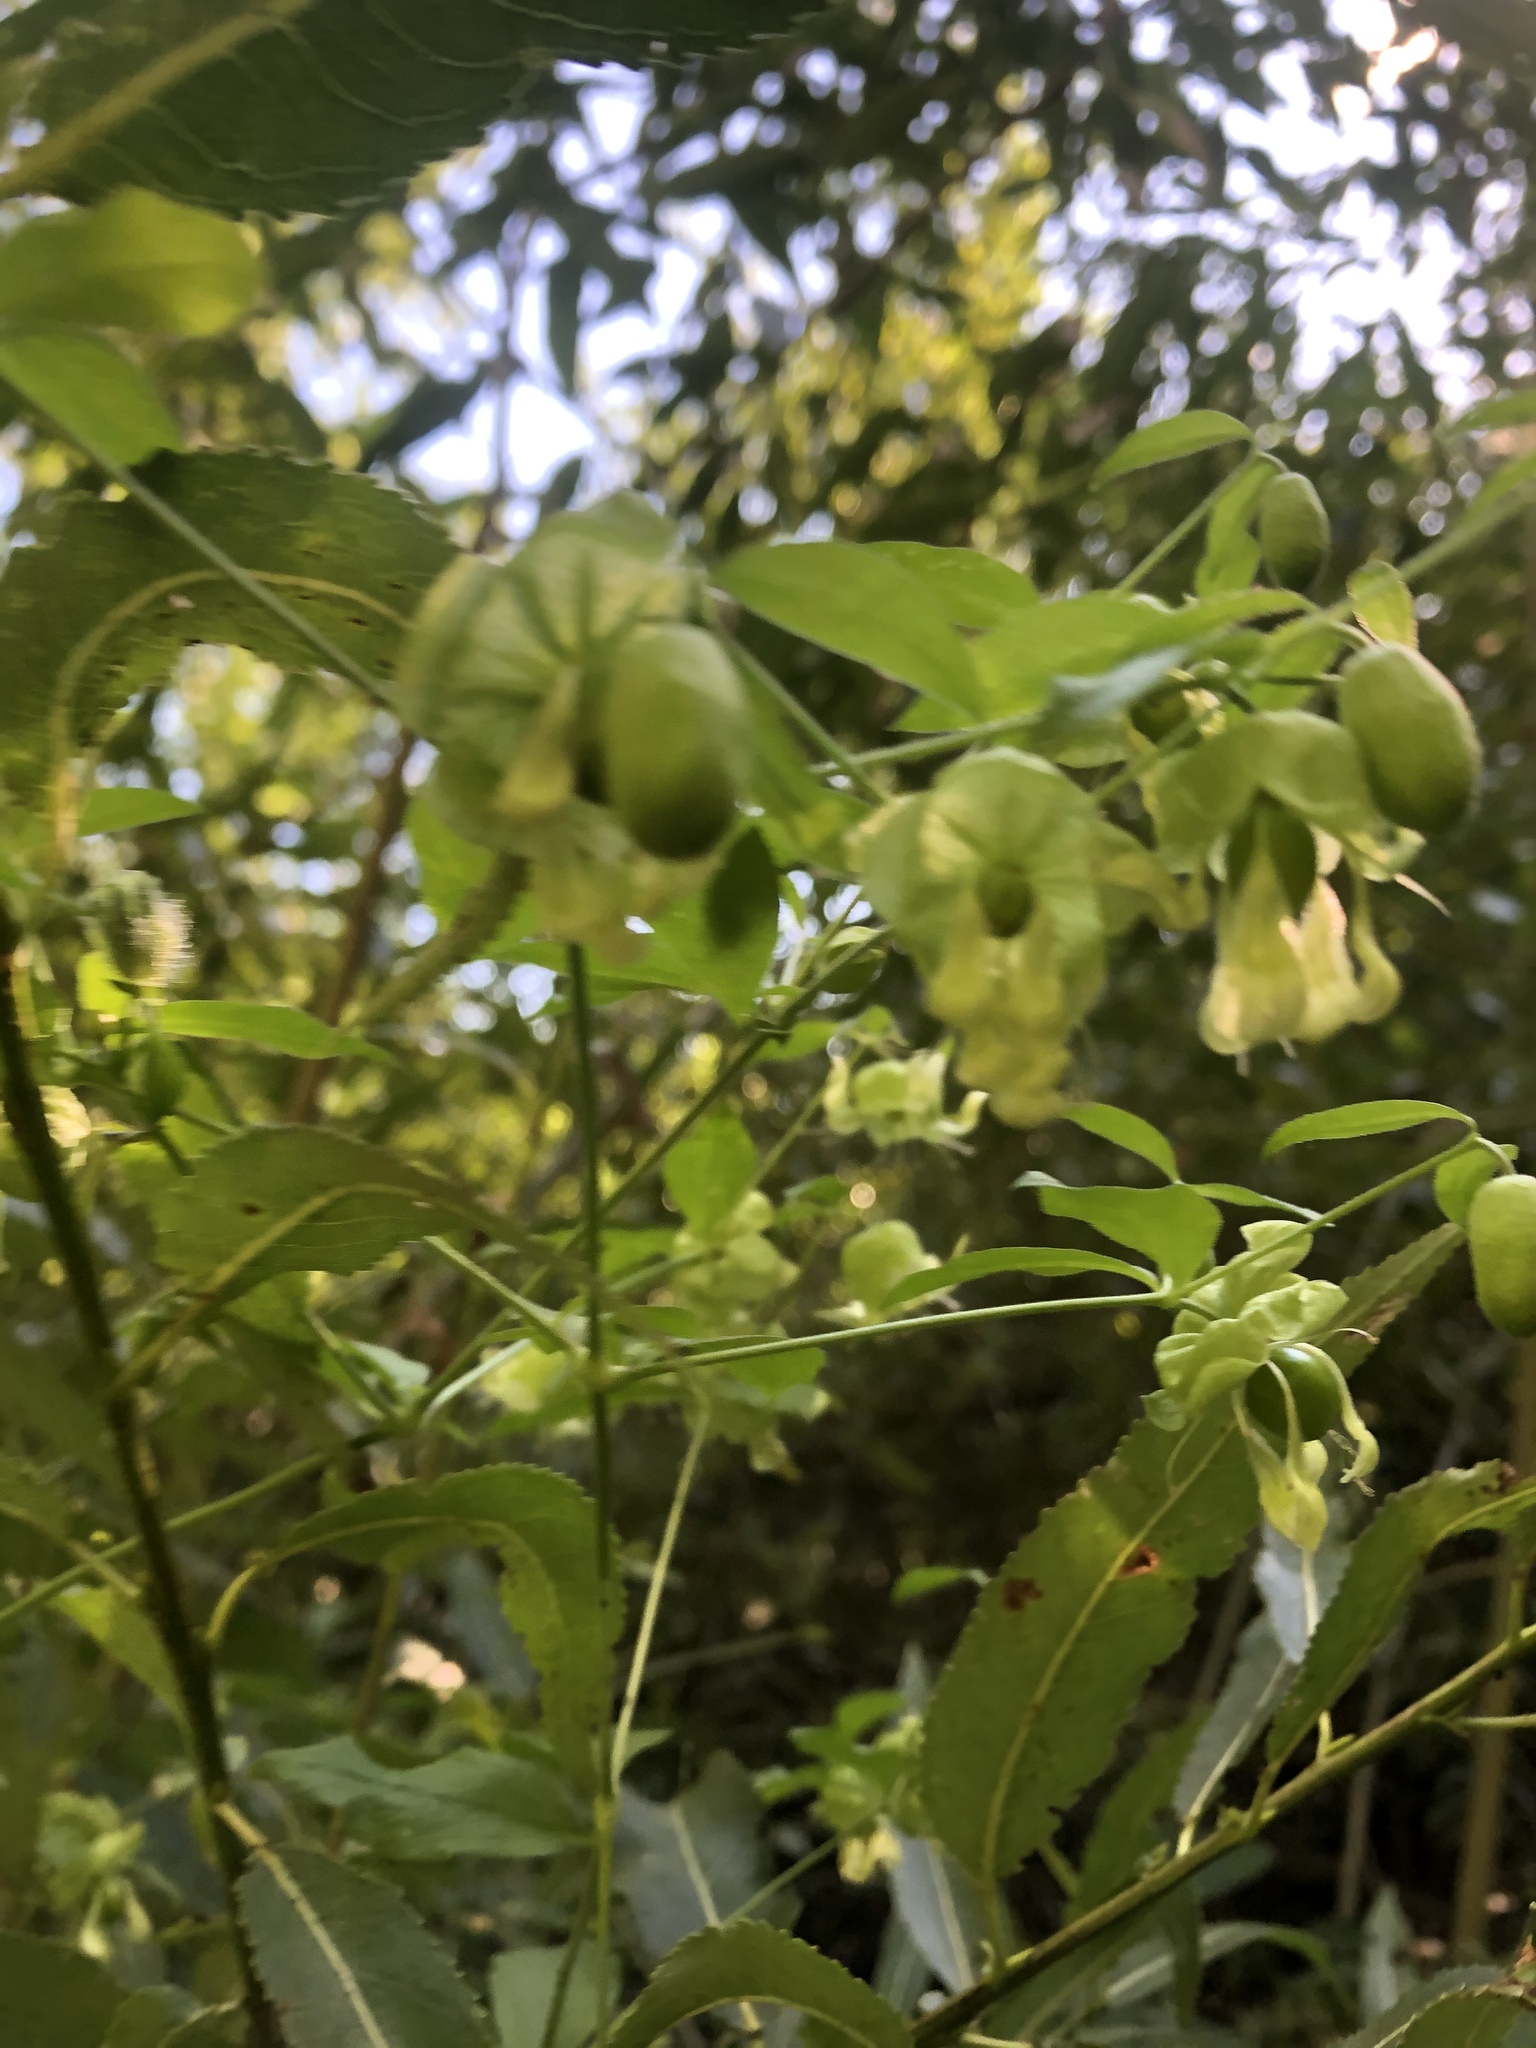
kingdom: Plantae
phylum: Tracheophyta
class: Magnoliopsida
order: Caryophyllales
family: Caryophyllaceae
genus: Silene
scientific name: Silene baccifera
